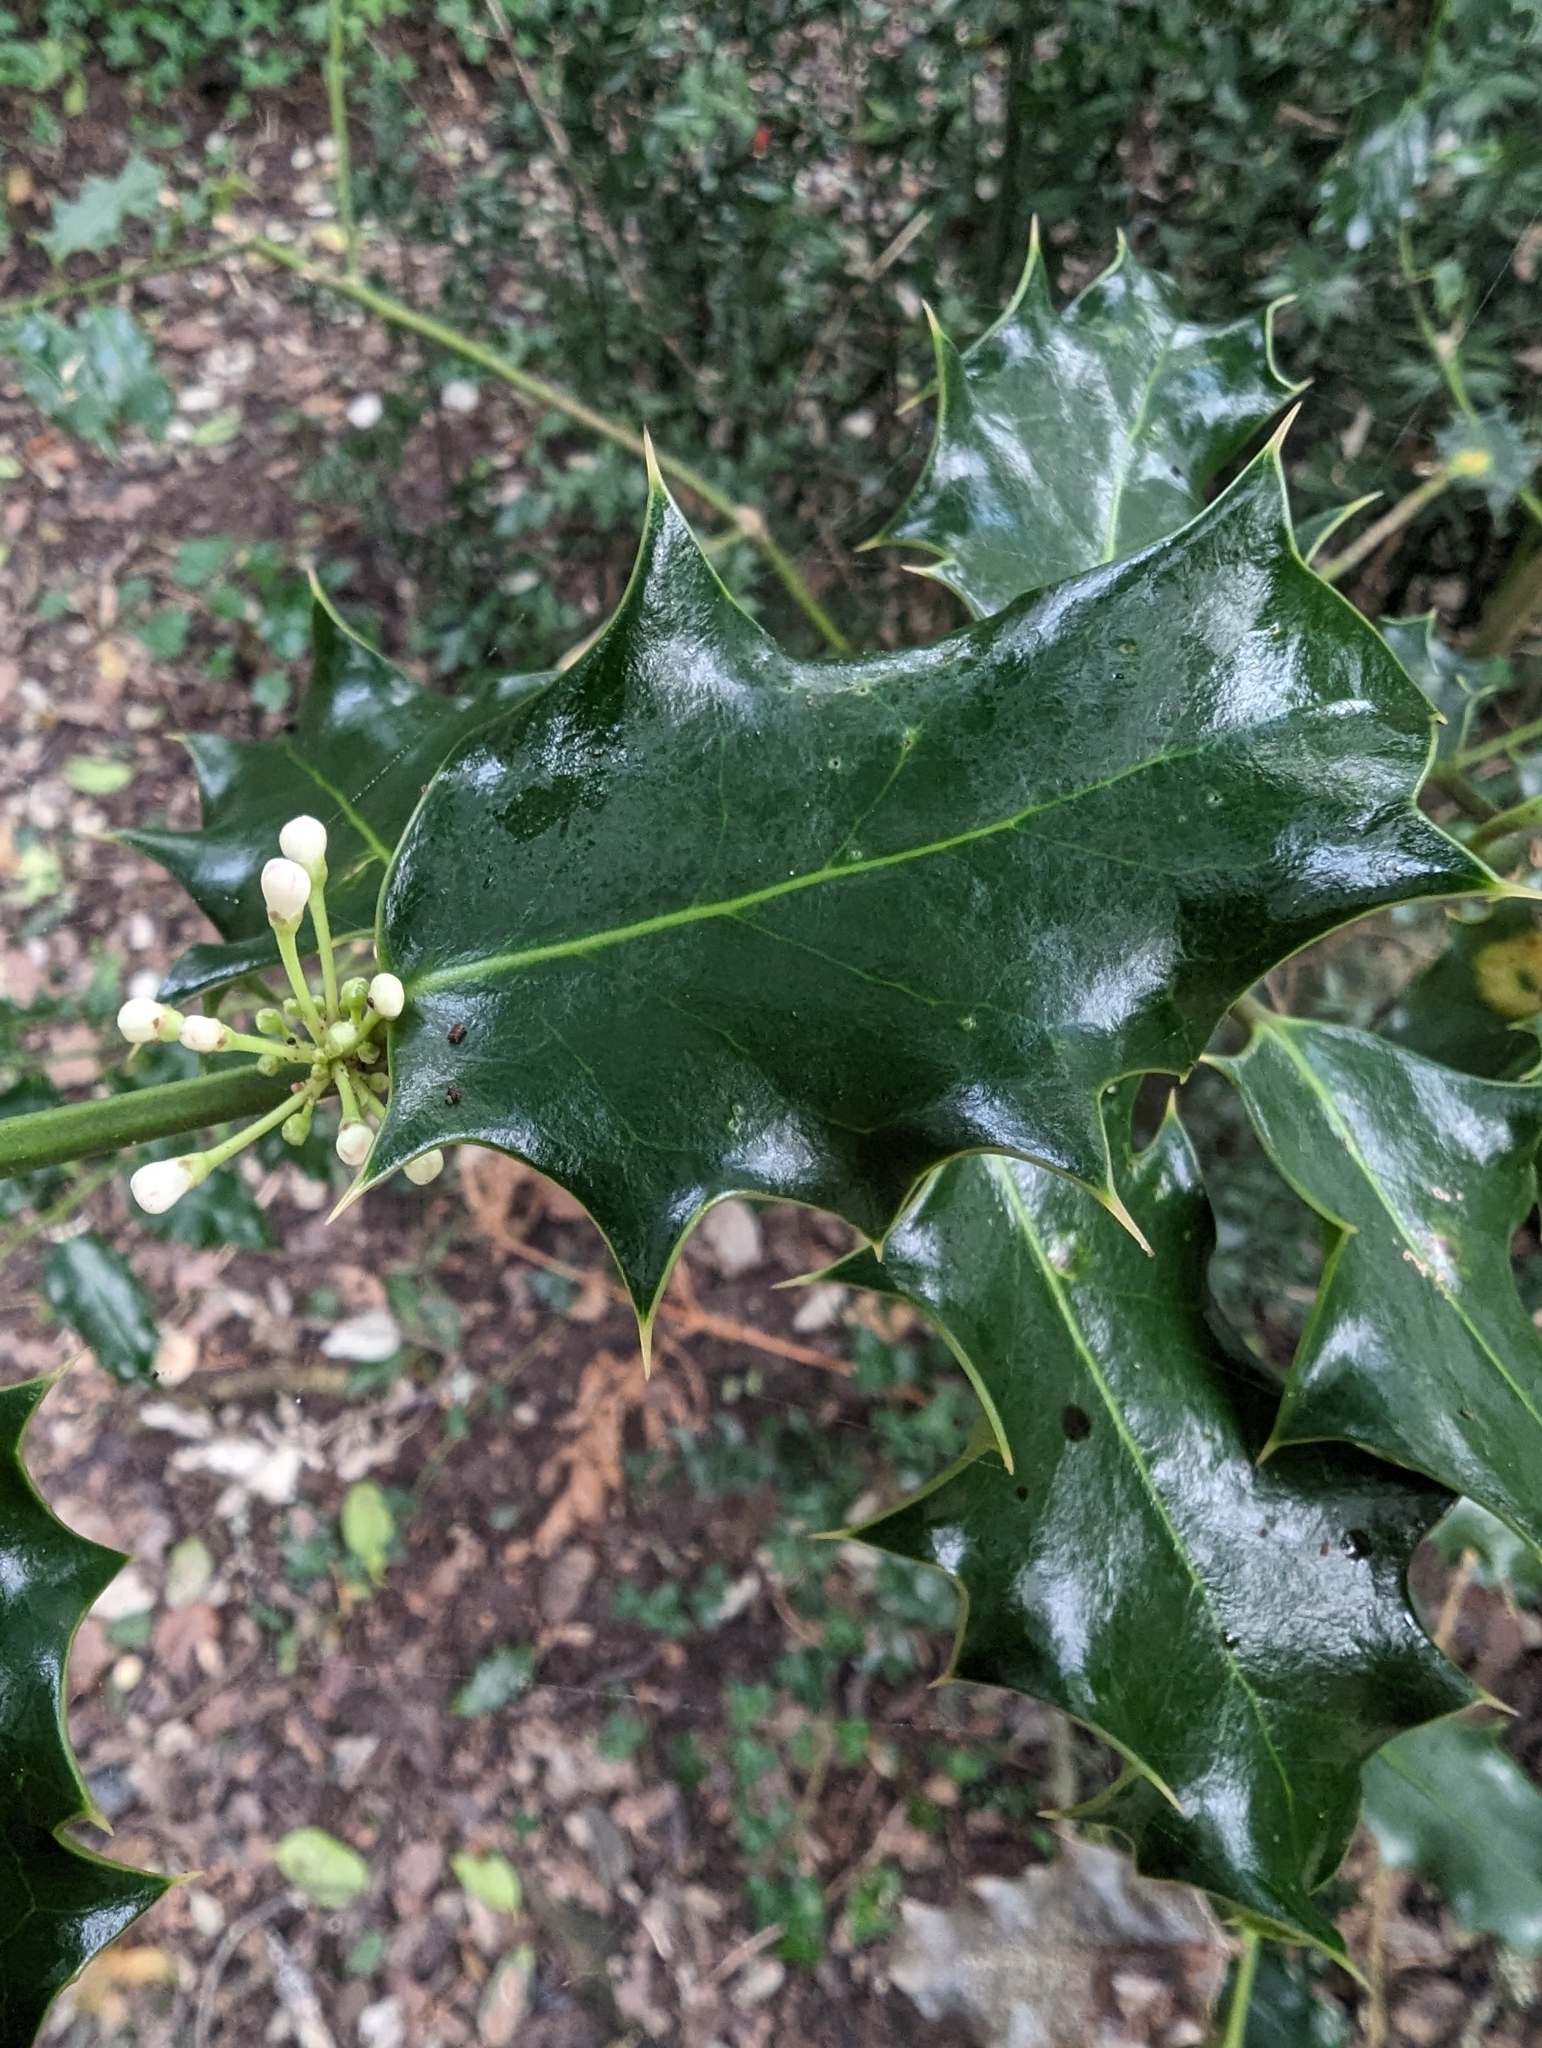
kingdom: Plantae
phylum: Tracheophyta
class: Magnoliopsida
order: Aquifoliales
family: Aquifoliaceae
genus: Ilex
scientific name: Ilex aquifolium
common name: English holly
